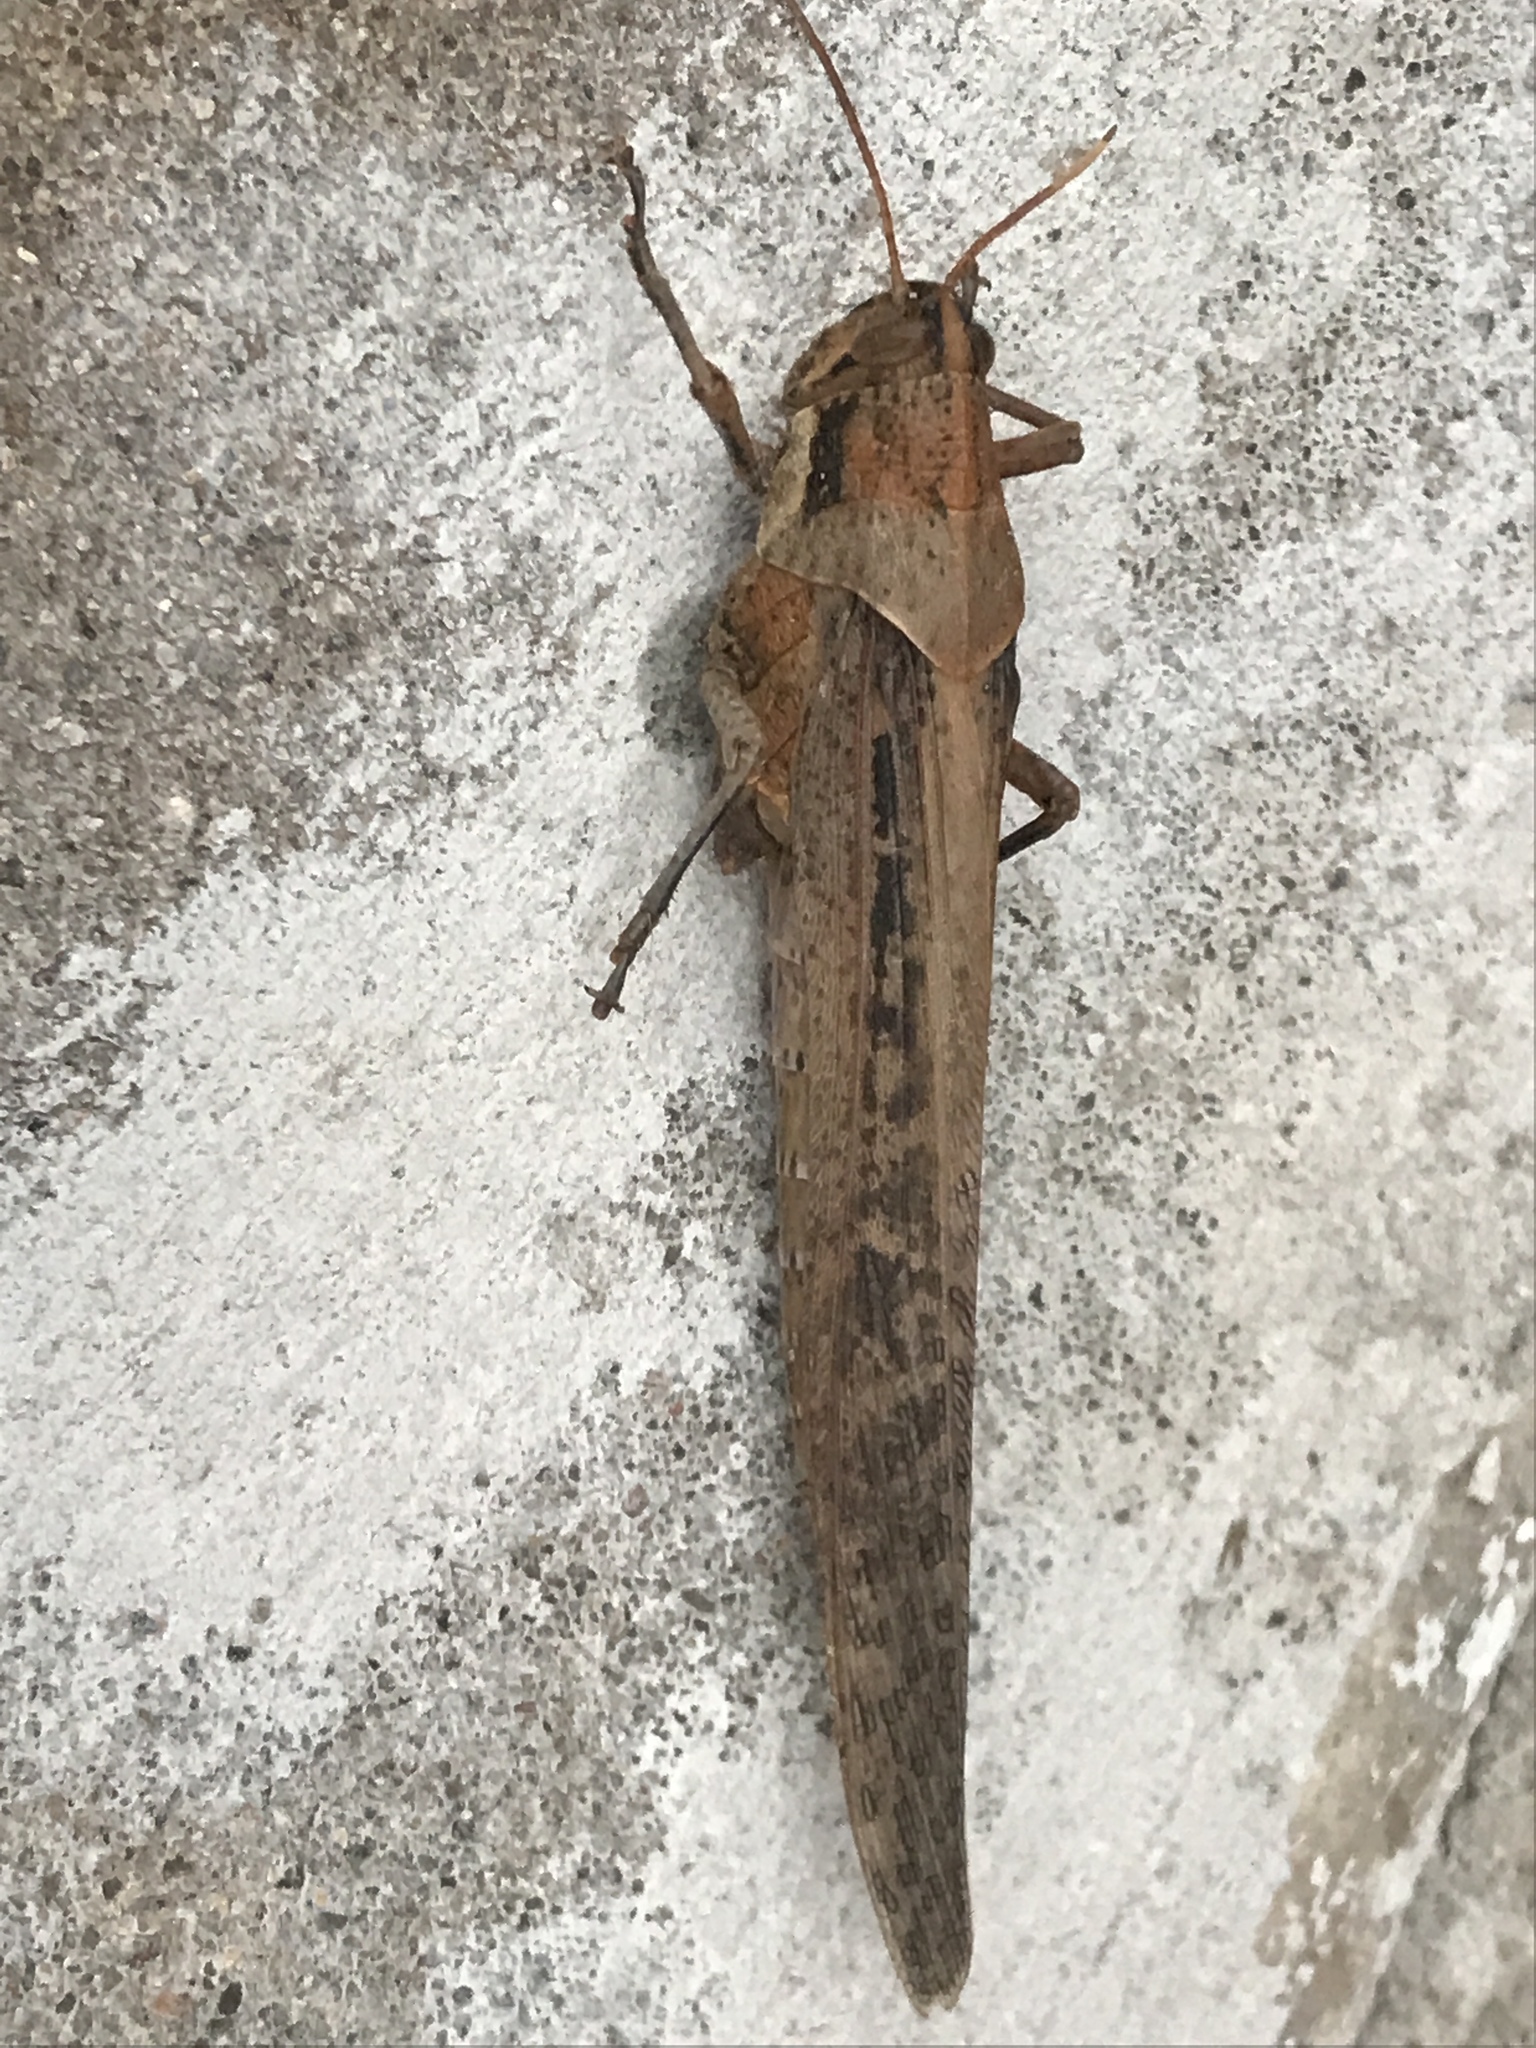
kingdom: Animalia
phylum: Arthropoda
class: Insecta
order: Orthoptera
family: Acrididae
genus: Schistocerca
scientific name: Schistocerca nitens
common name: Vagrant grasshopper
